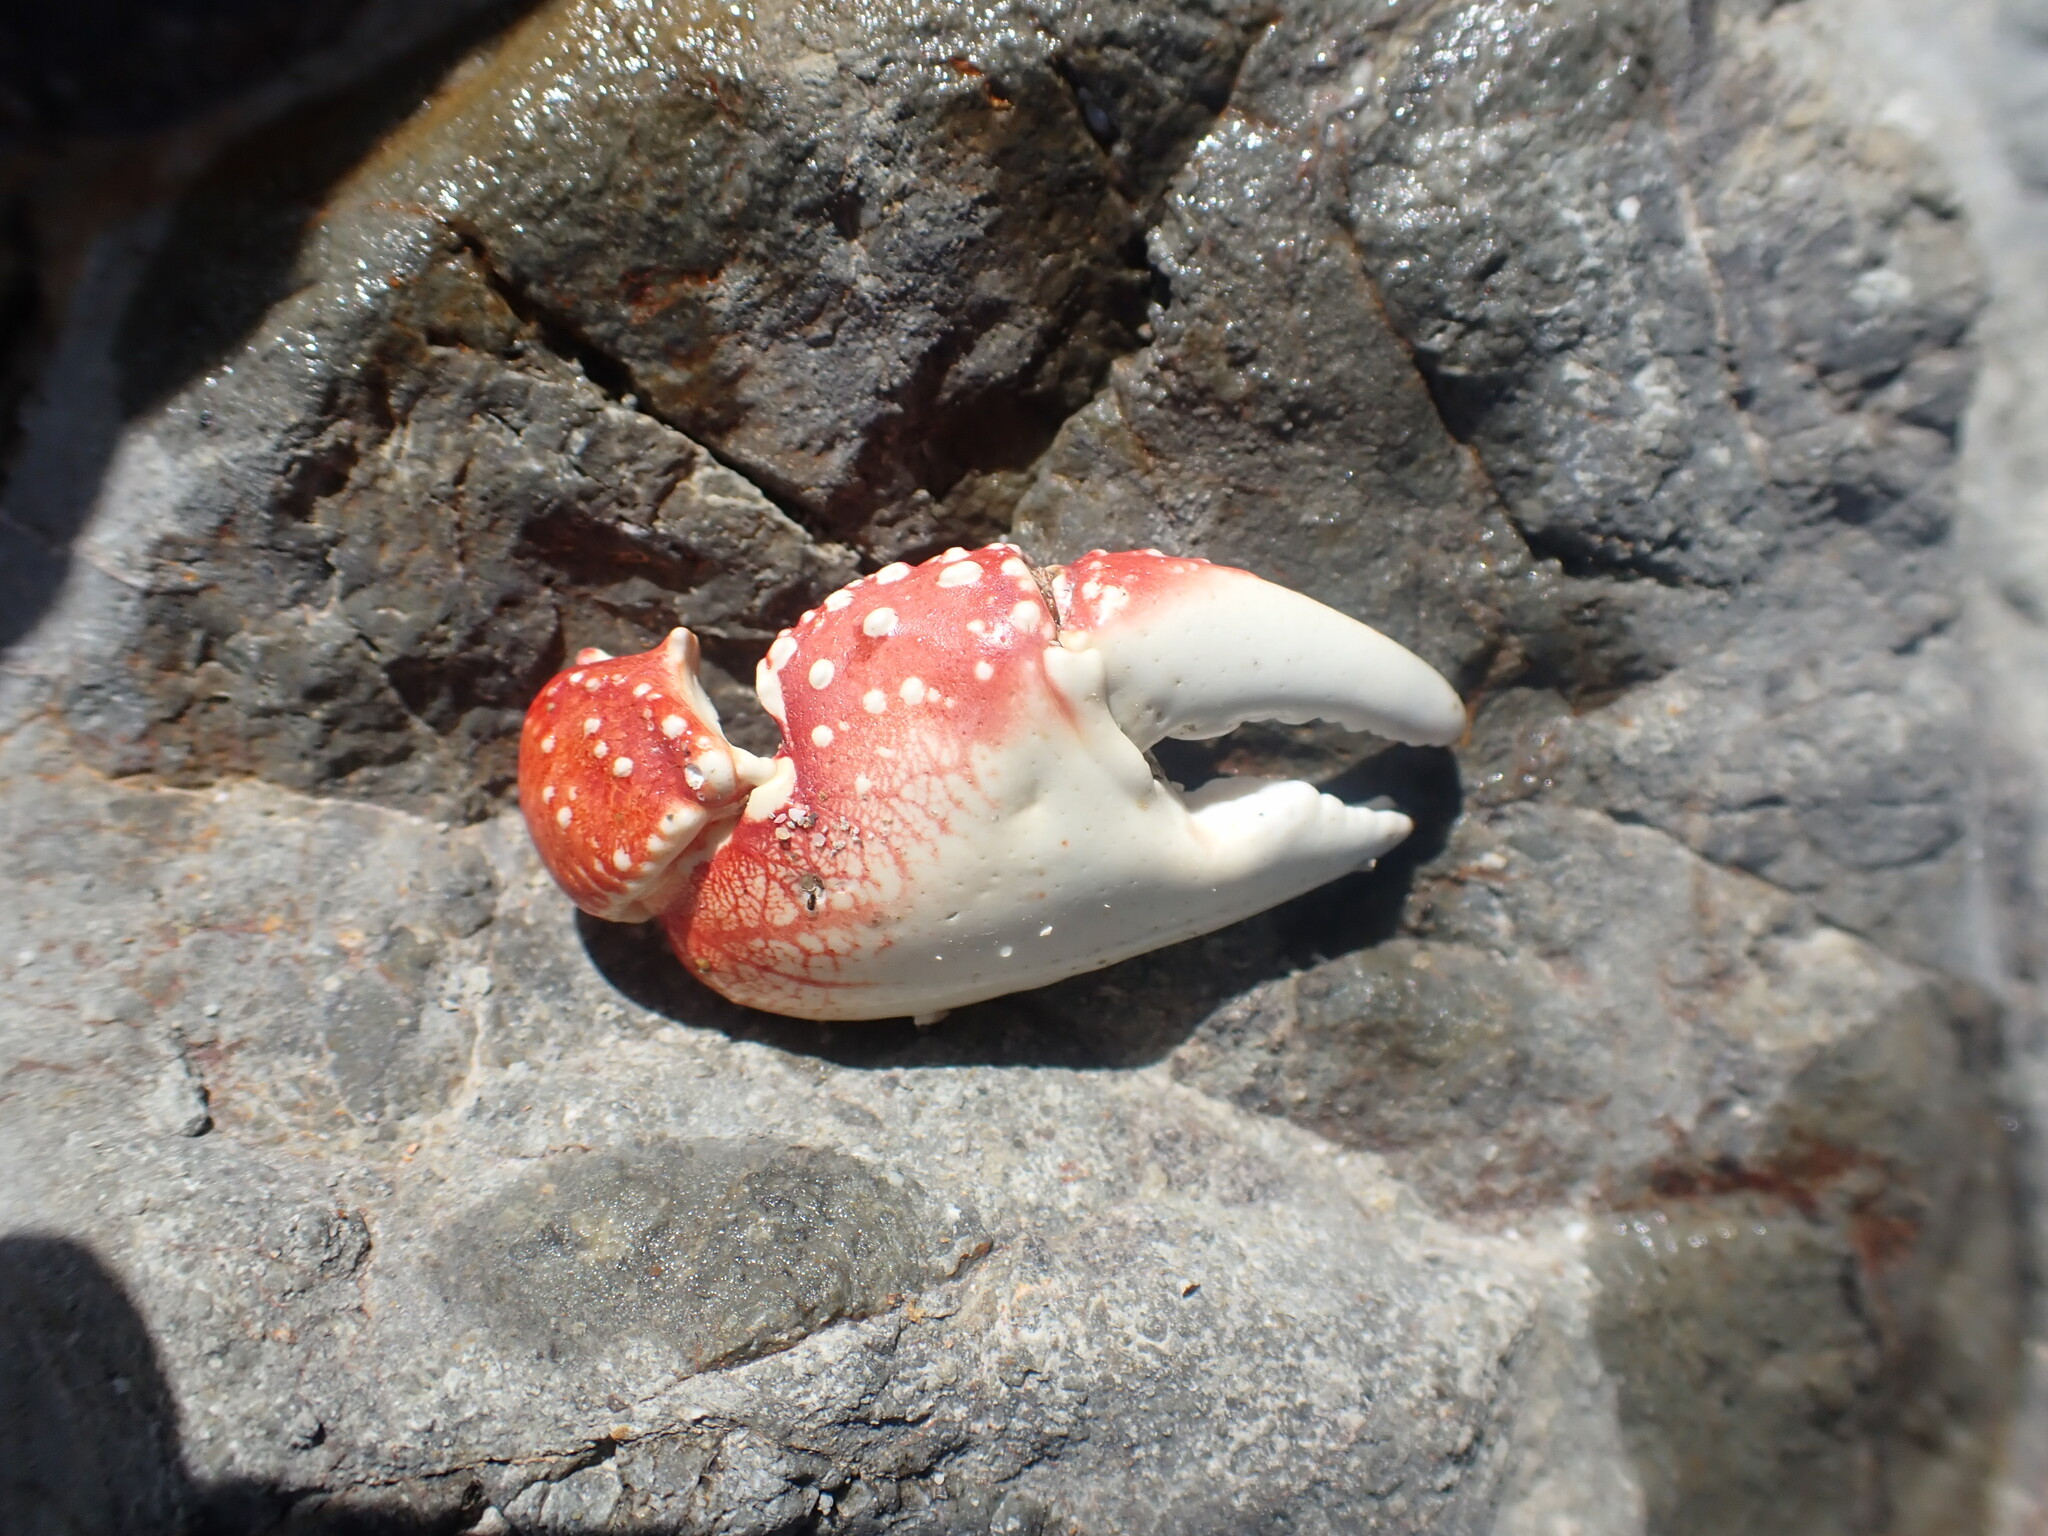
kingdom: Animalia
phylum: Arthropoda
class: Malacostraca
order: Decapoda
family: Grapsidae
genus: Leptograpsus
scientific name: Leptograpsus variegatus
